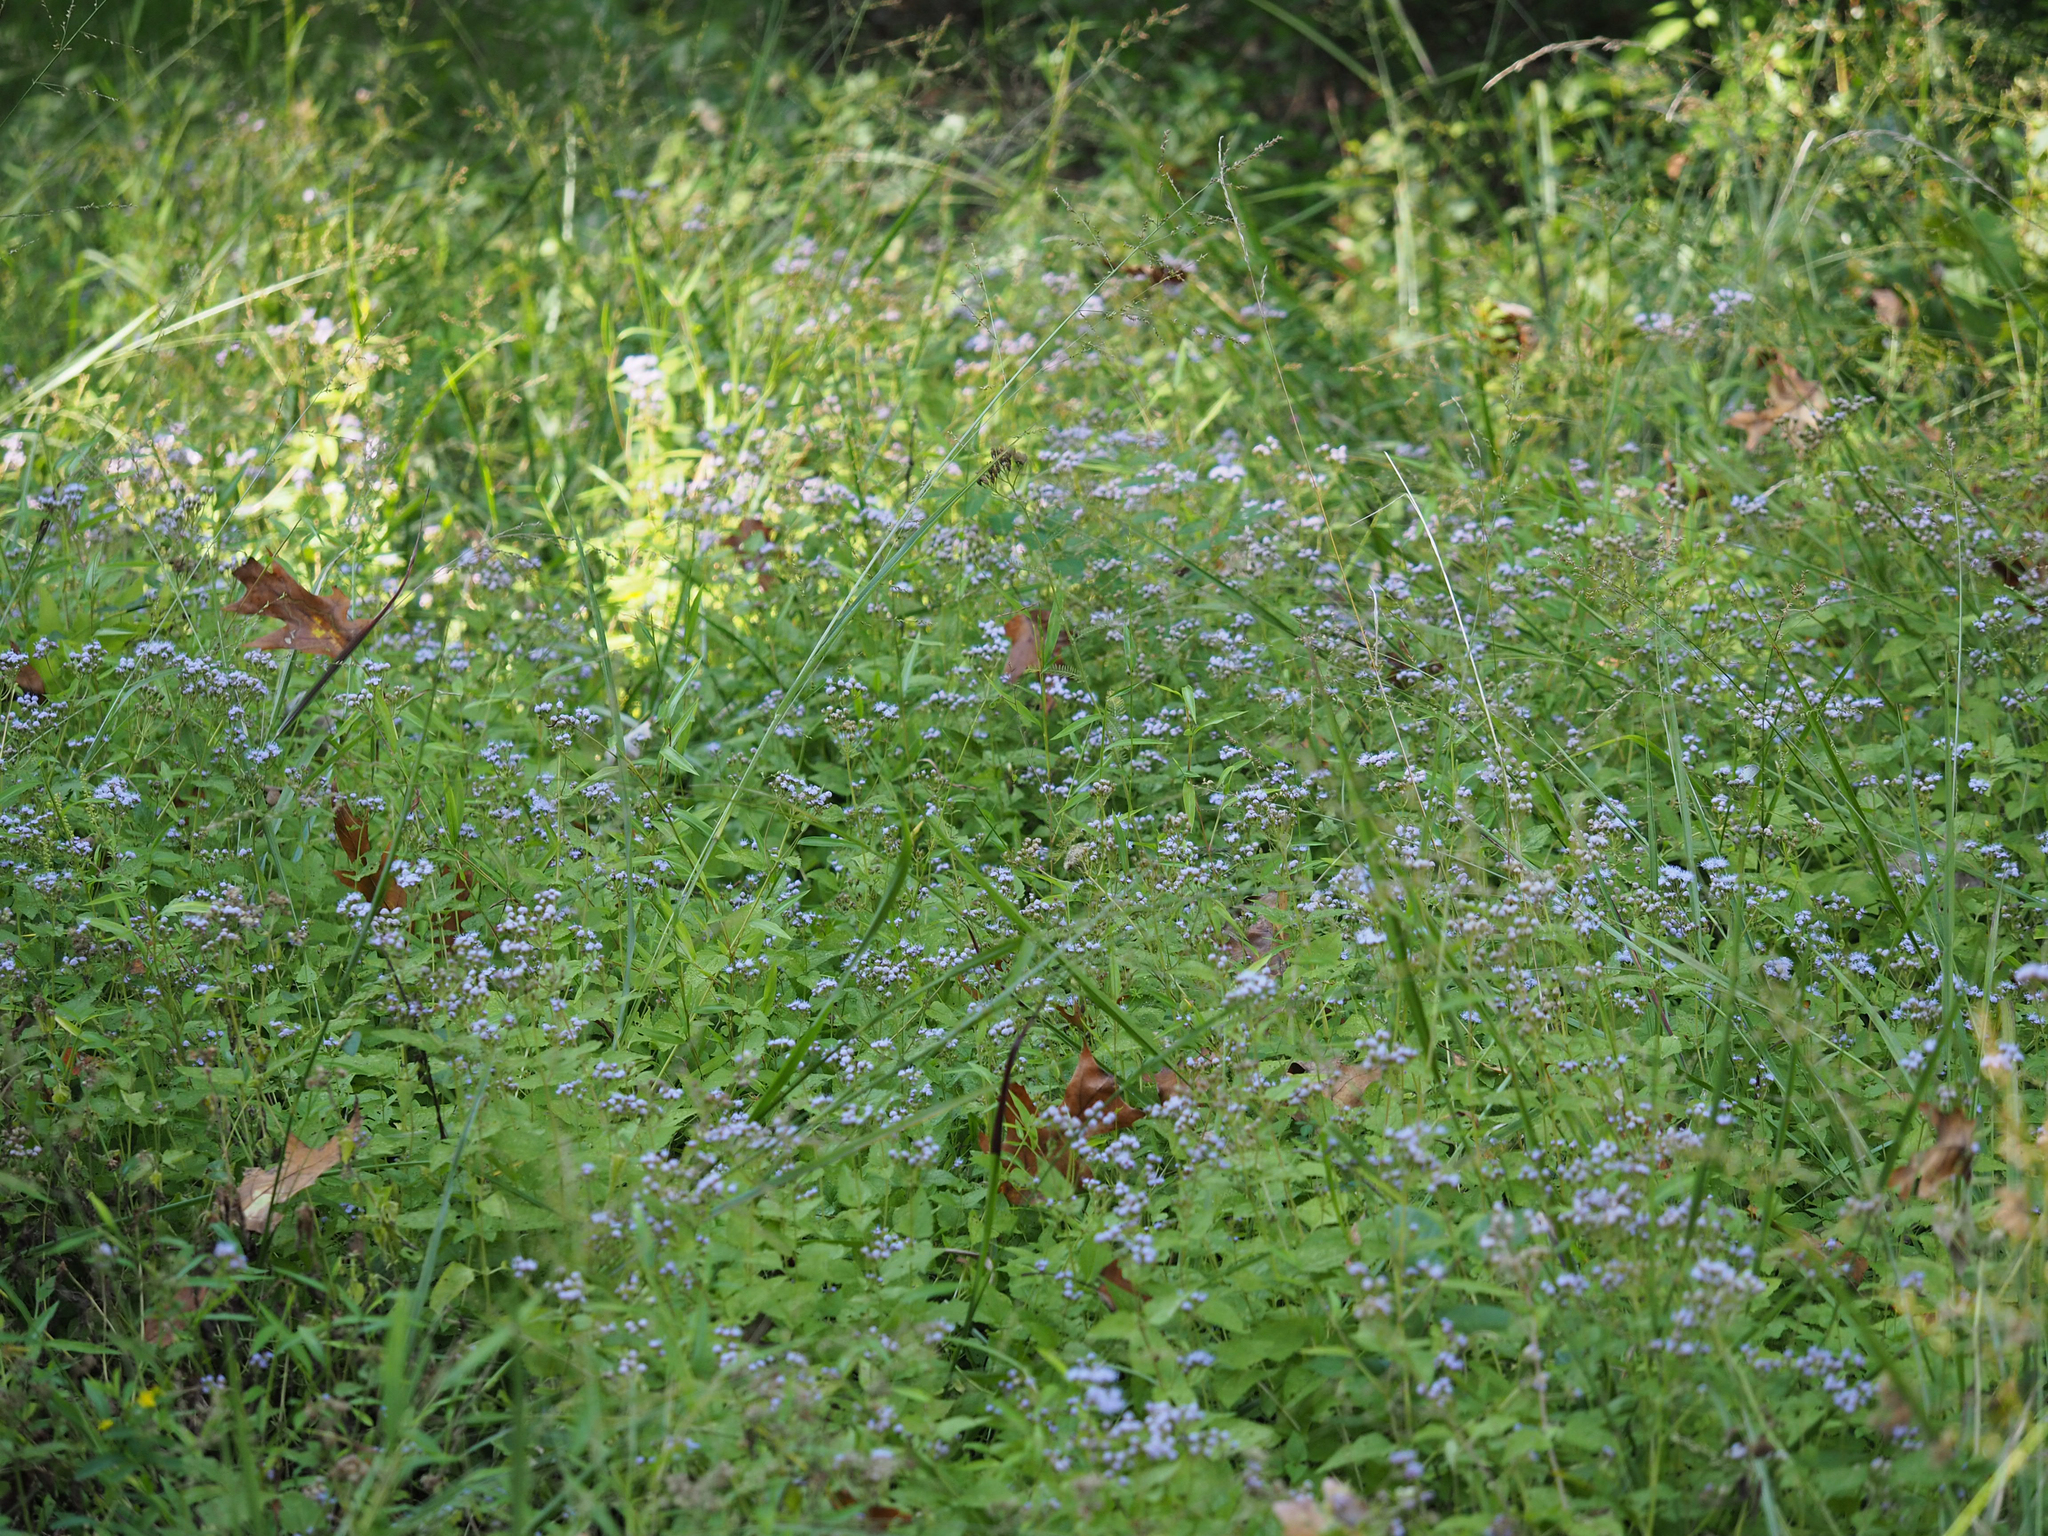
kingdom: Plantae
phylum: Tracheophyta
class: Magnoliopsida
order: Asterales
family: Asteraceae
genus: Conoclinium
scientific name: Conoclinium coelestinum
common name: Blue mistflower
